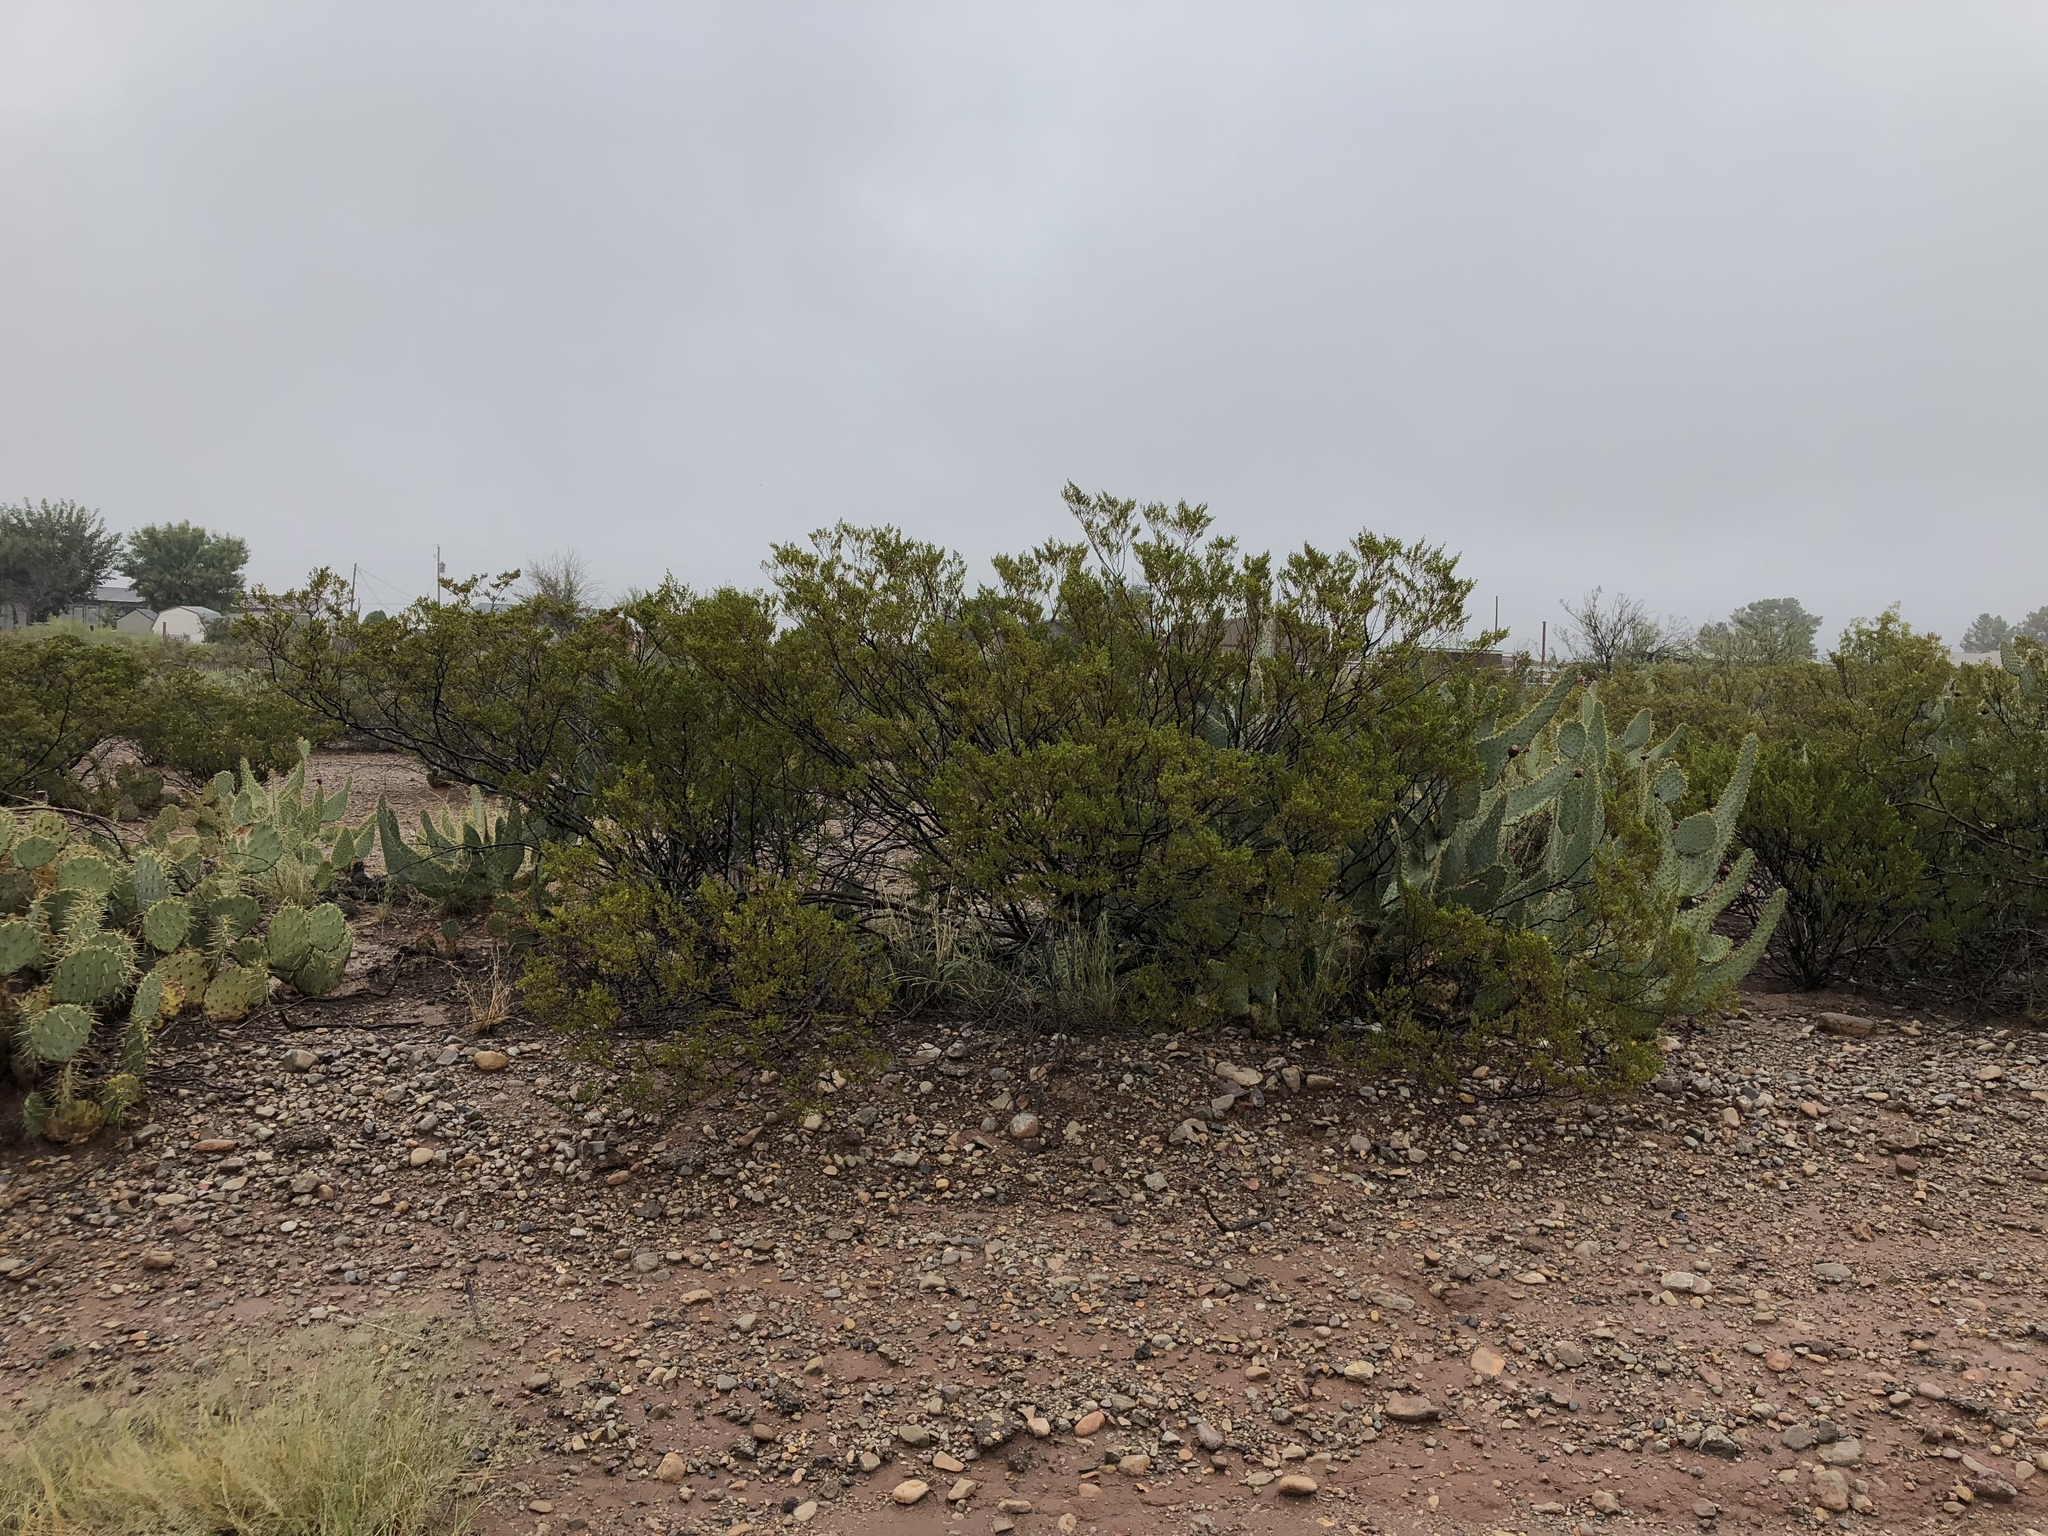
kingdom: Plantae
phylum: Tracheophyta
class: Magnoliopsida
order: Zygophyllales
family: Zygophyllaceae
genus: Larrea
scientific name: Larrea tridentata
